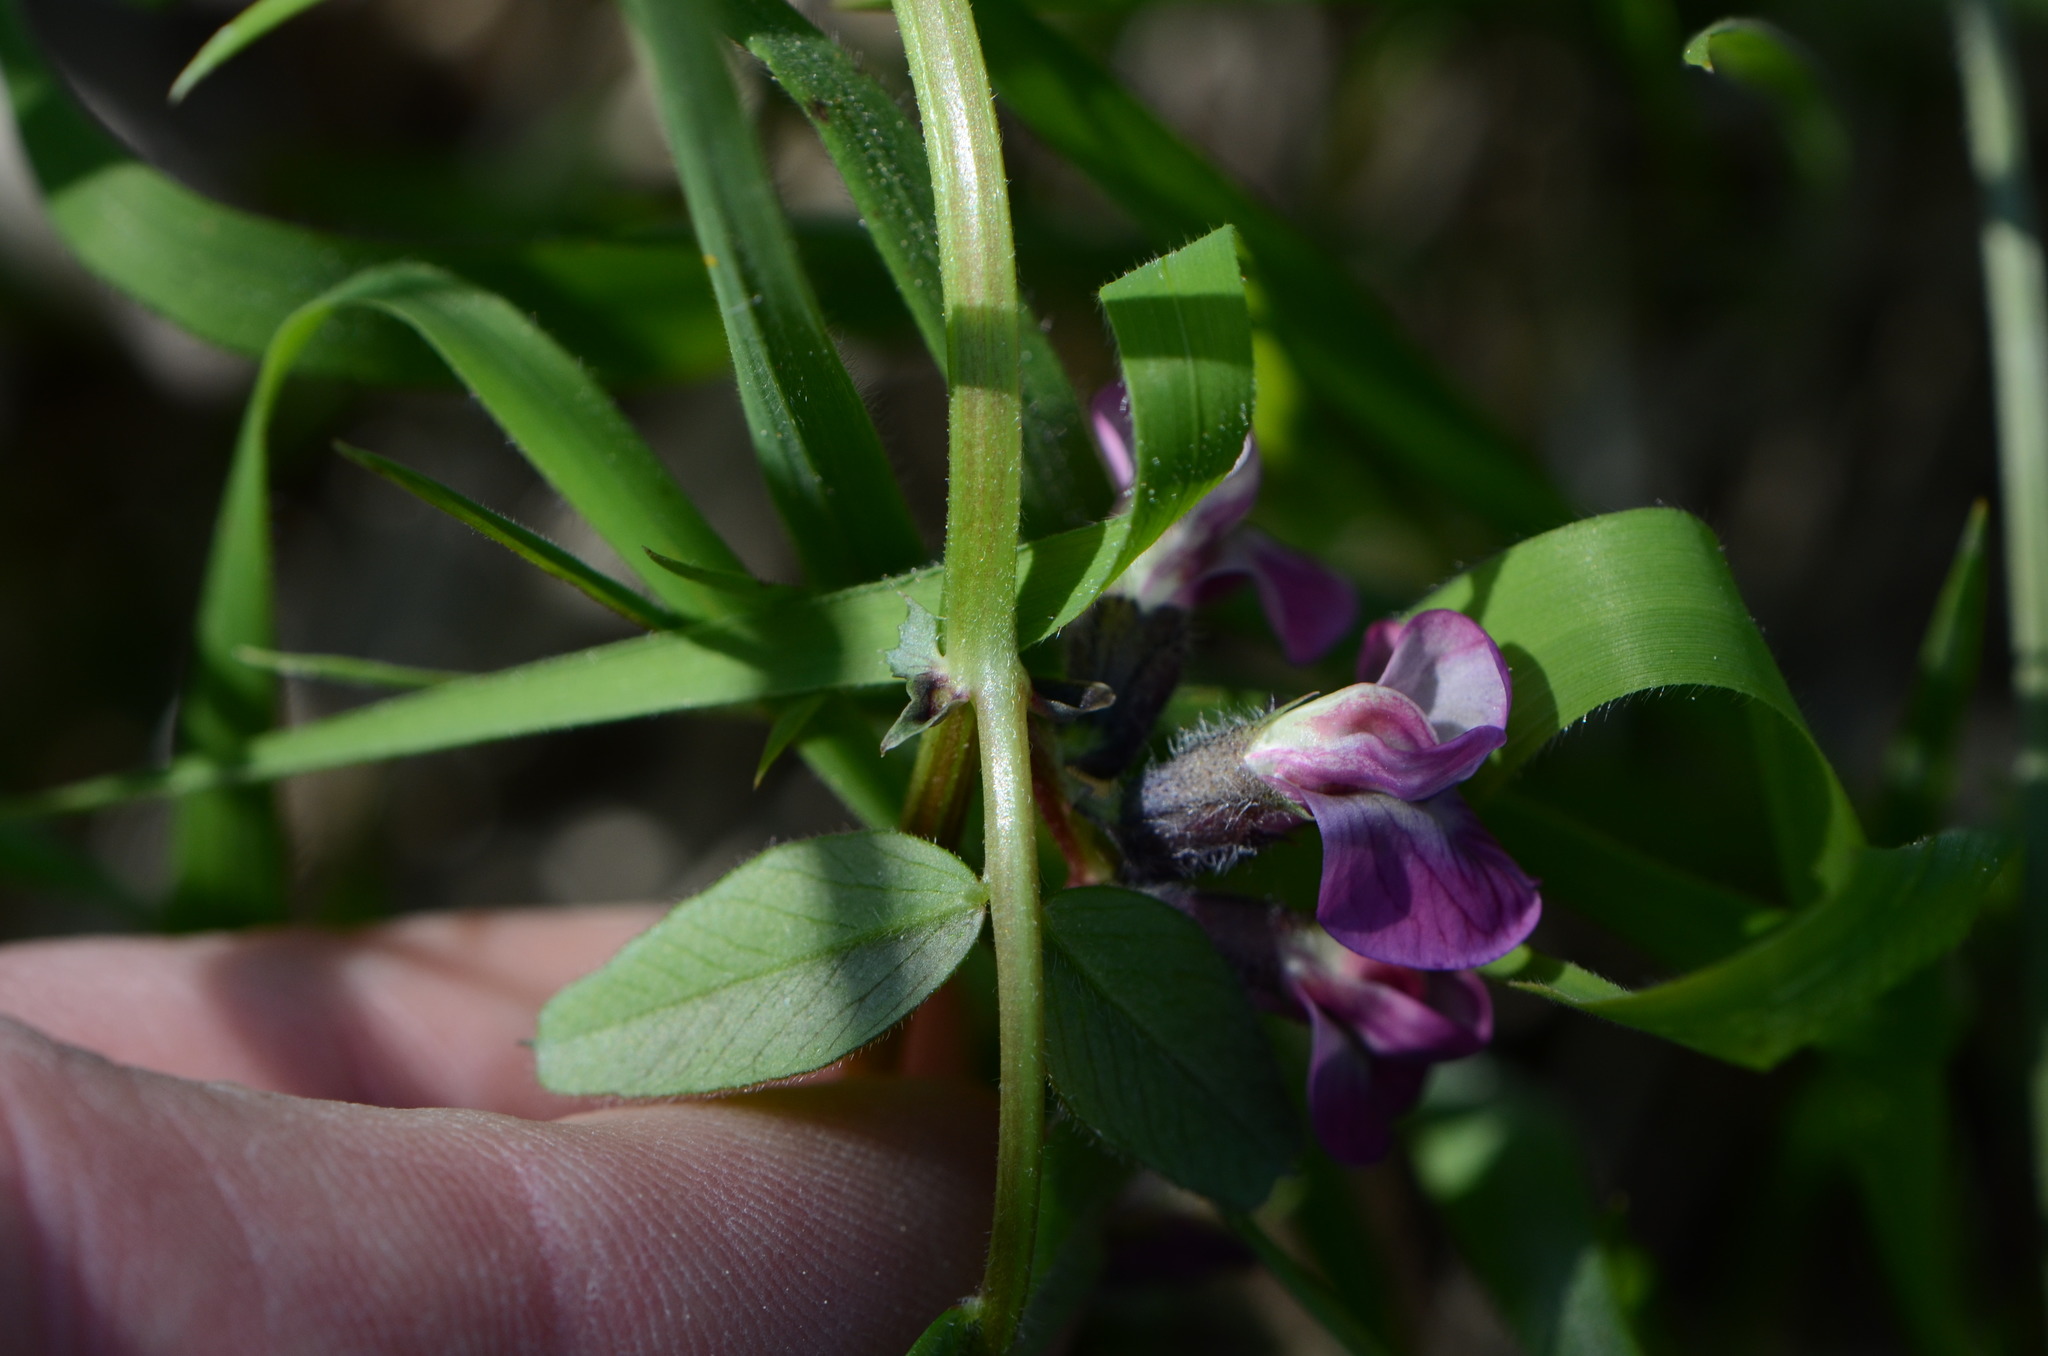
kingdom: Plantae
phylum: Tracheophyta
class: Magnoliopsida
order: Fabales
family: Fabaceae
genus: Vicia
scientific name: Vicia sepium
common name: Bush vetch
